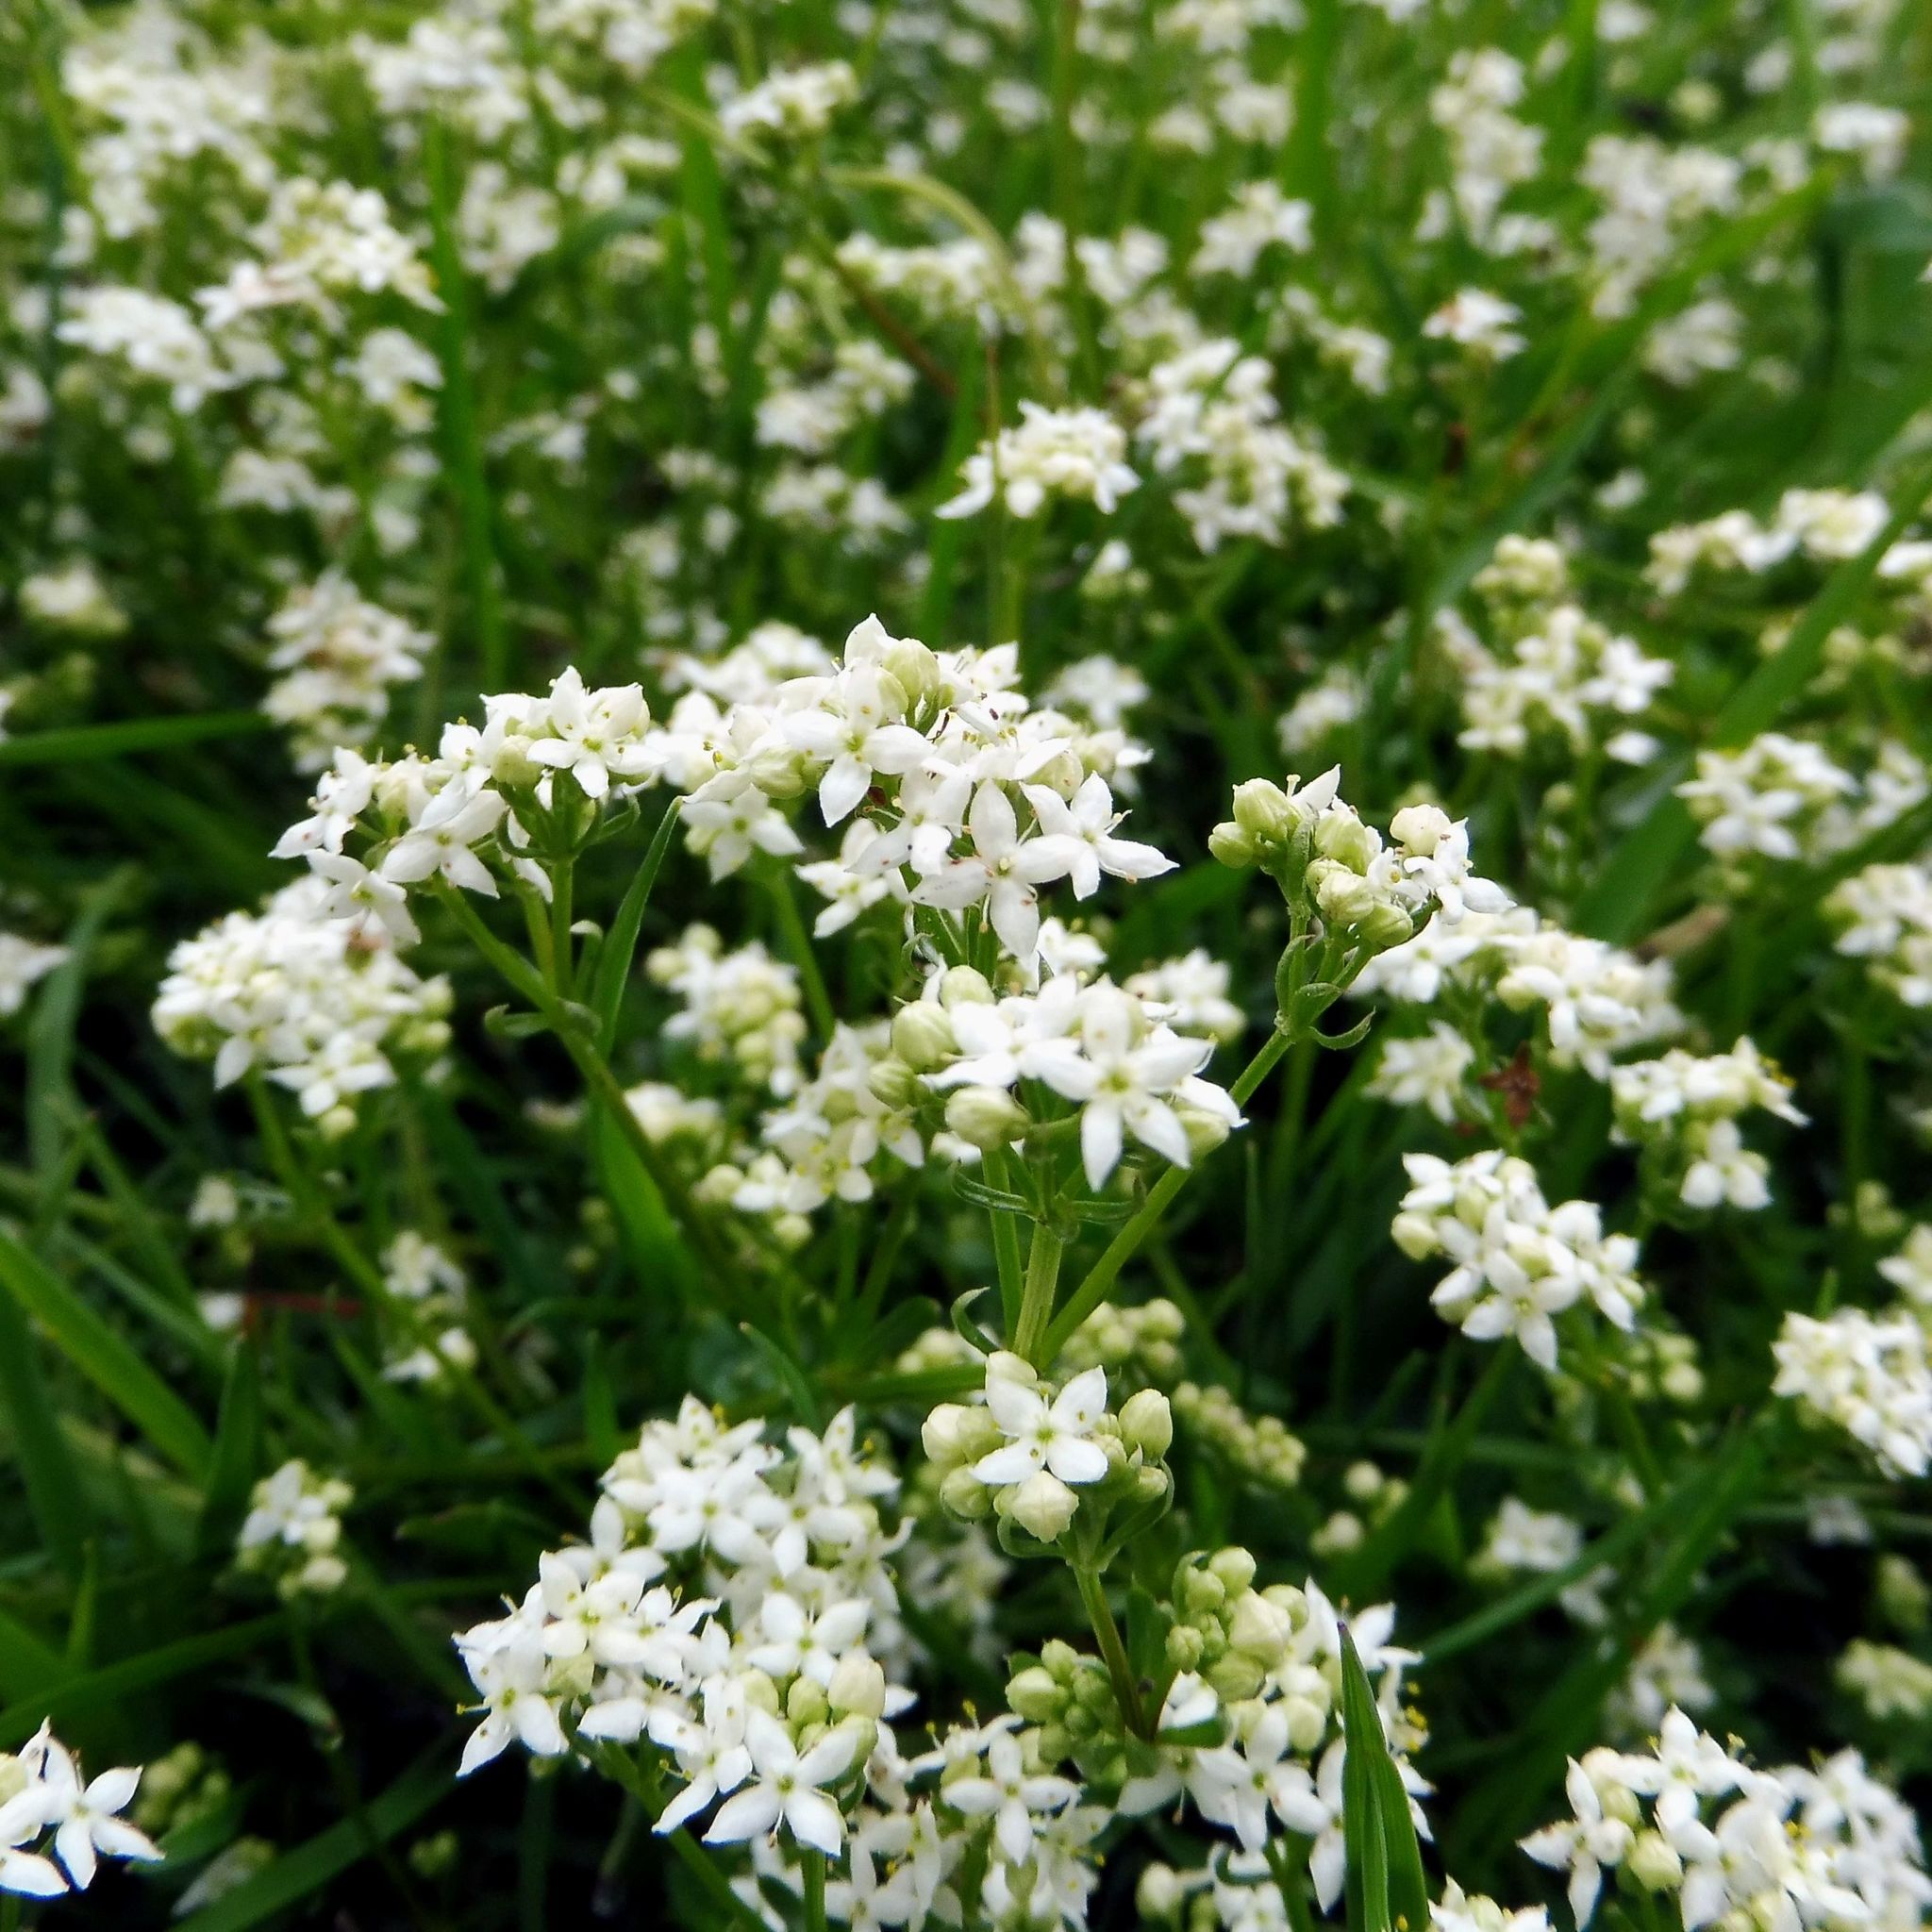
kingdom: Plantae
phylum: Tracheophyta
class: Magnoliopsida
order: Gentianales
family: Rubiaceae
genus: Galium
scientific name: Galium saxatile
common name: Heath bedstraw
